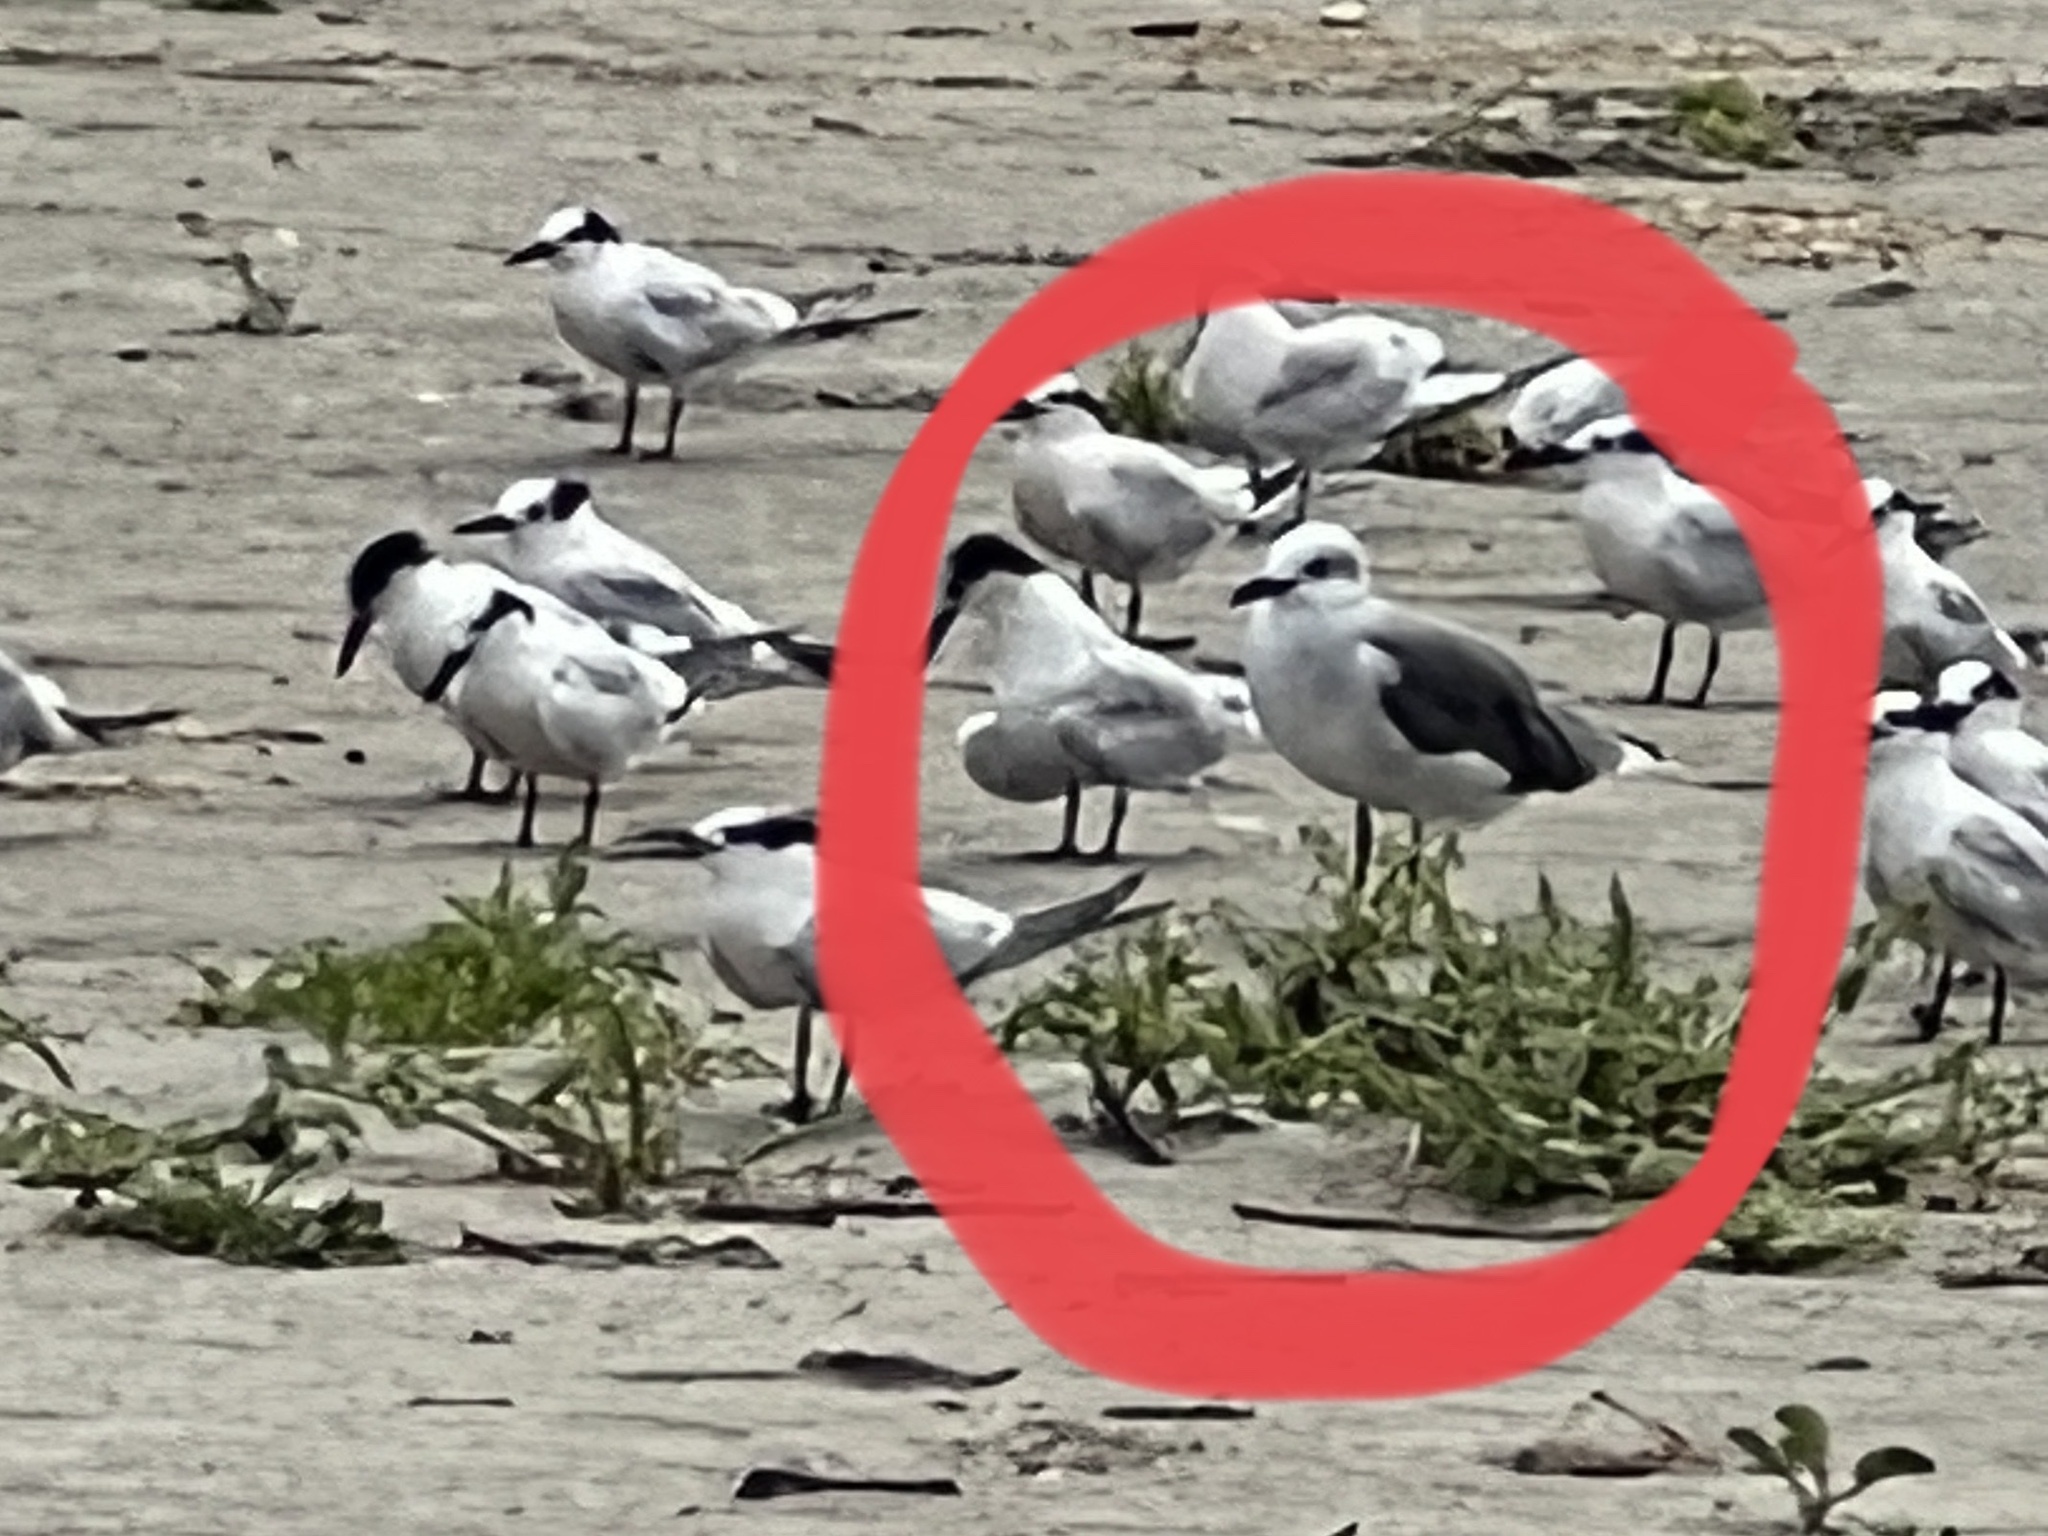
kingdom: Animalia
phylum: Chordata
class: Aves
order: Charadriiformes
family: Laridae
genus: Leucophaeus
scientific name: Leucophaeus atricilla
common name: Laughing gull
